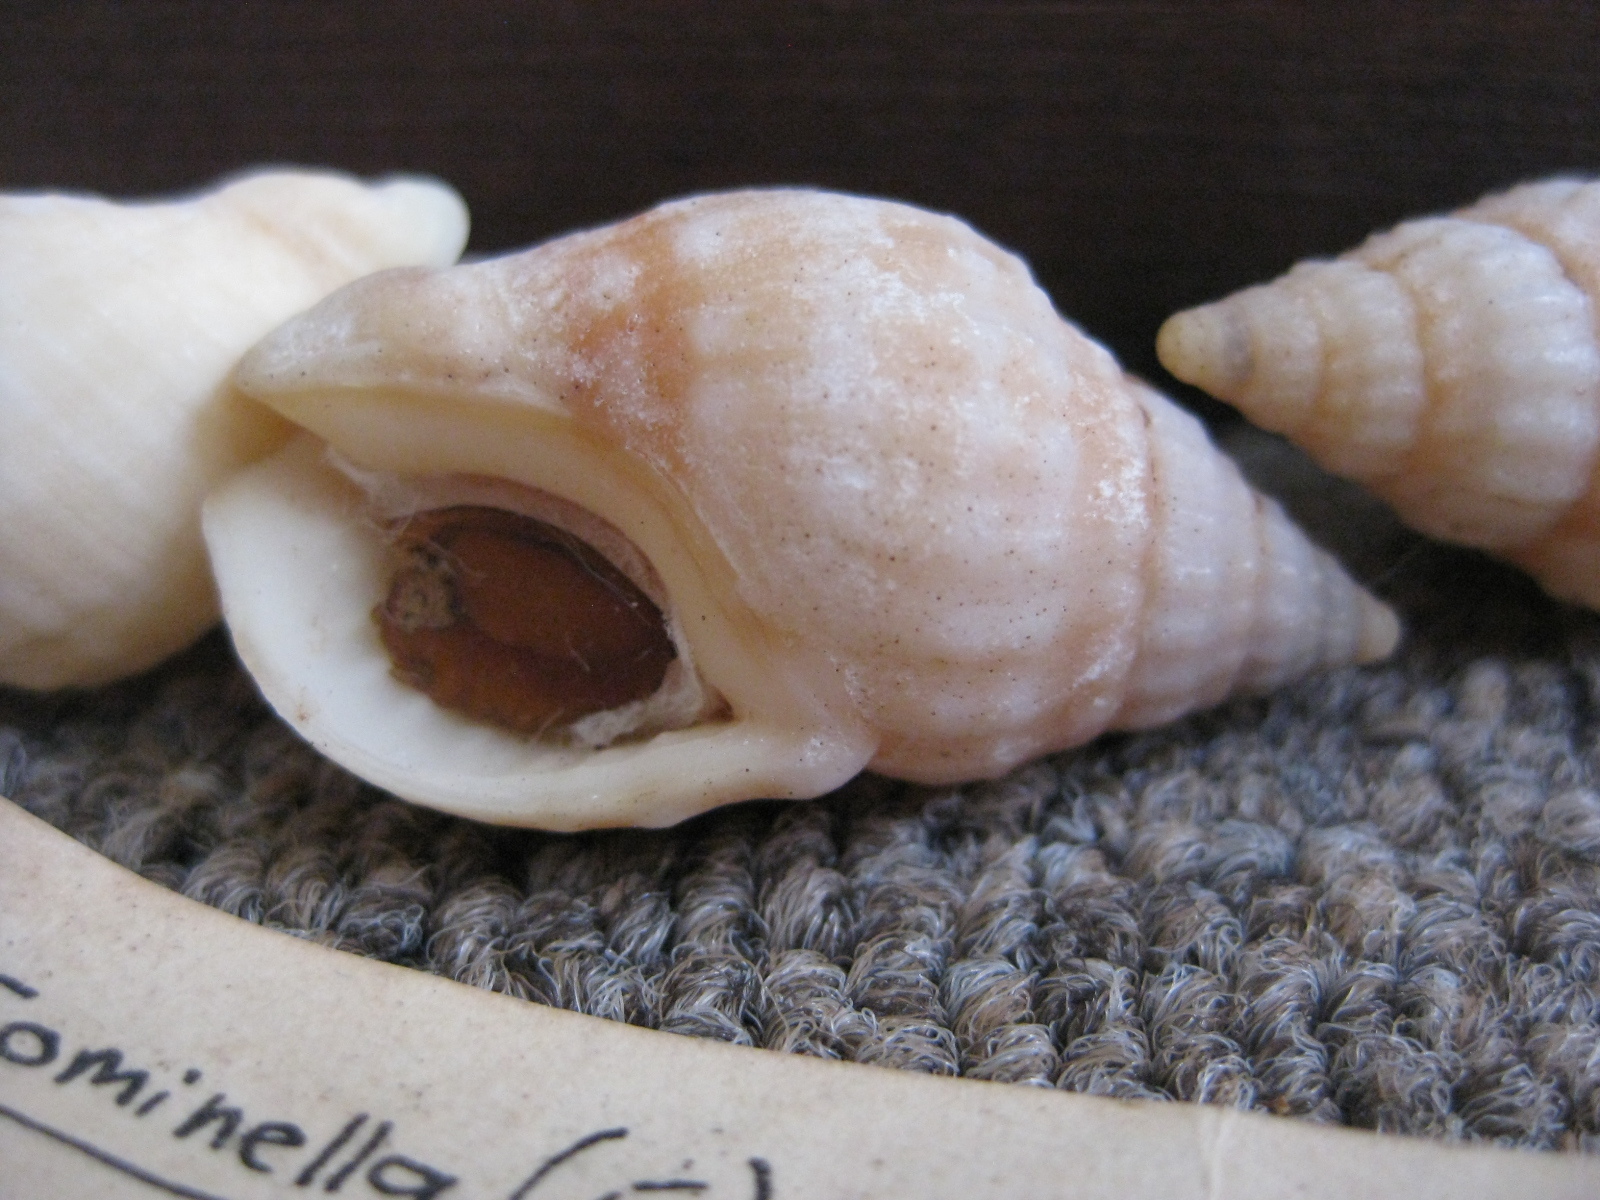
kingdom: Animalia
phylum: Mollusca
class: Gastropoda
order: Neogastropoda
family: Cominellidae
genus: Cominella
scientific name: Cominella nassoides
